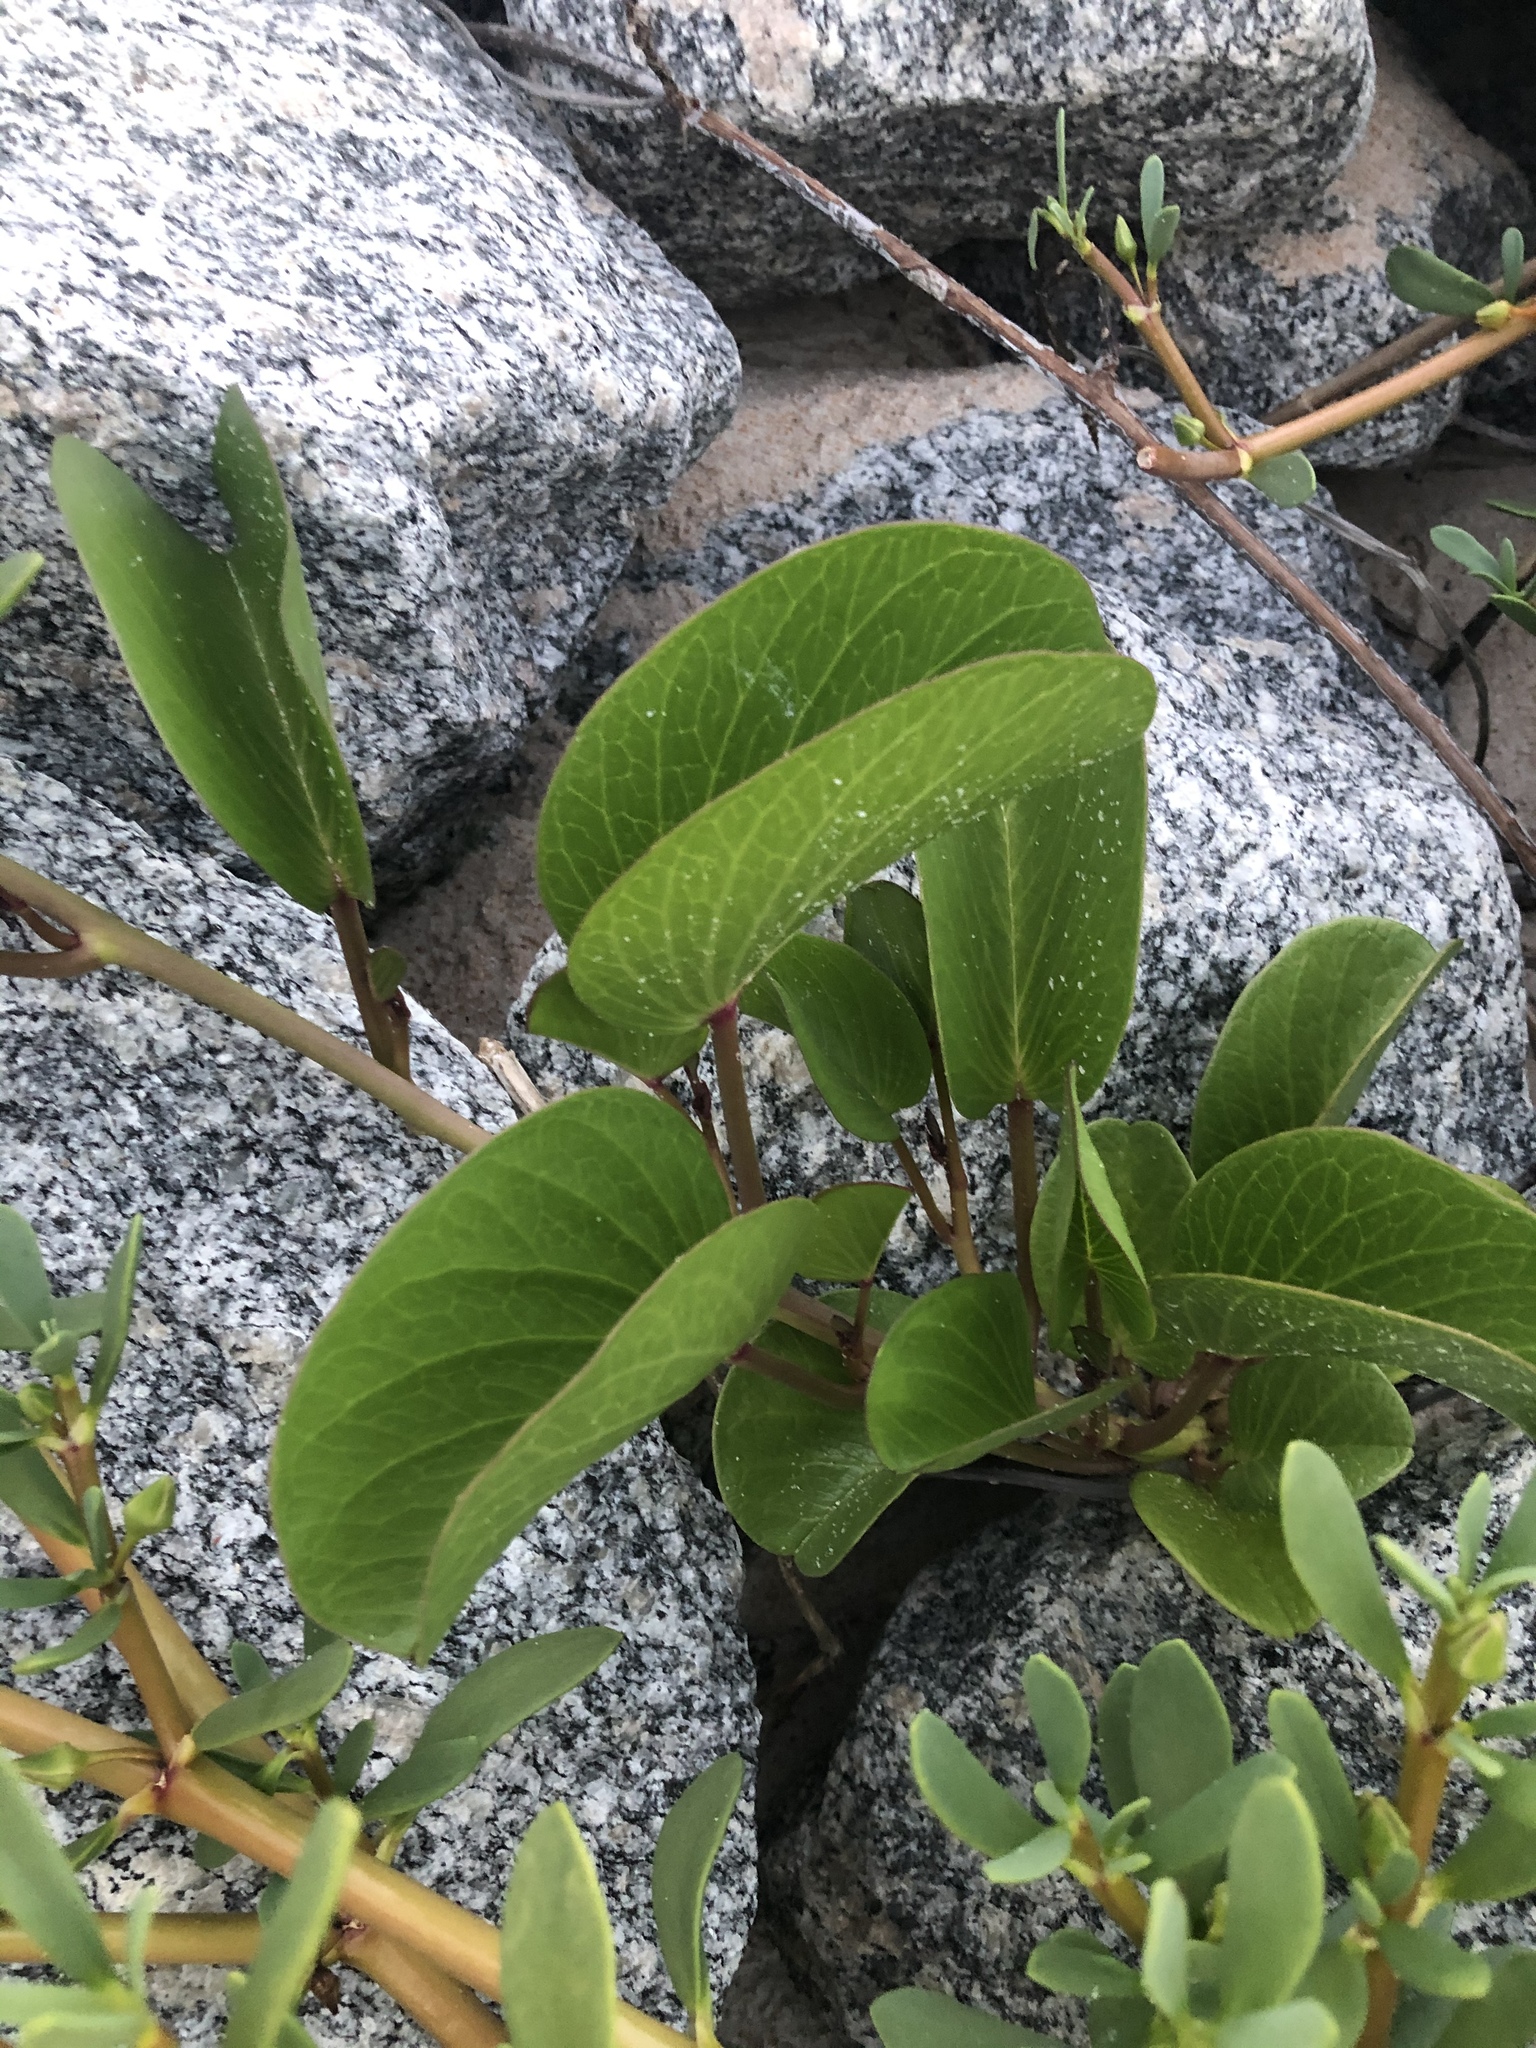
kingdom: Plantae
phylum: Tracheophyta
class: Magnoliopsida
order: Solanales
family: Convolvulaceae
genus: Ipomoea
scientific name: Ipomoea pes-caprae
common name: Beach morning glory
